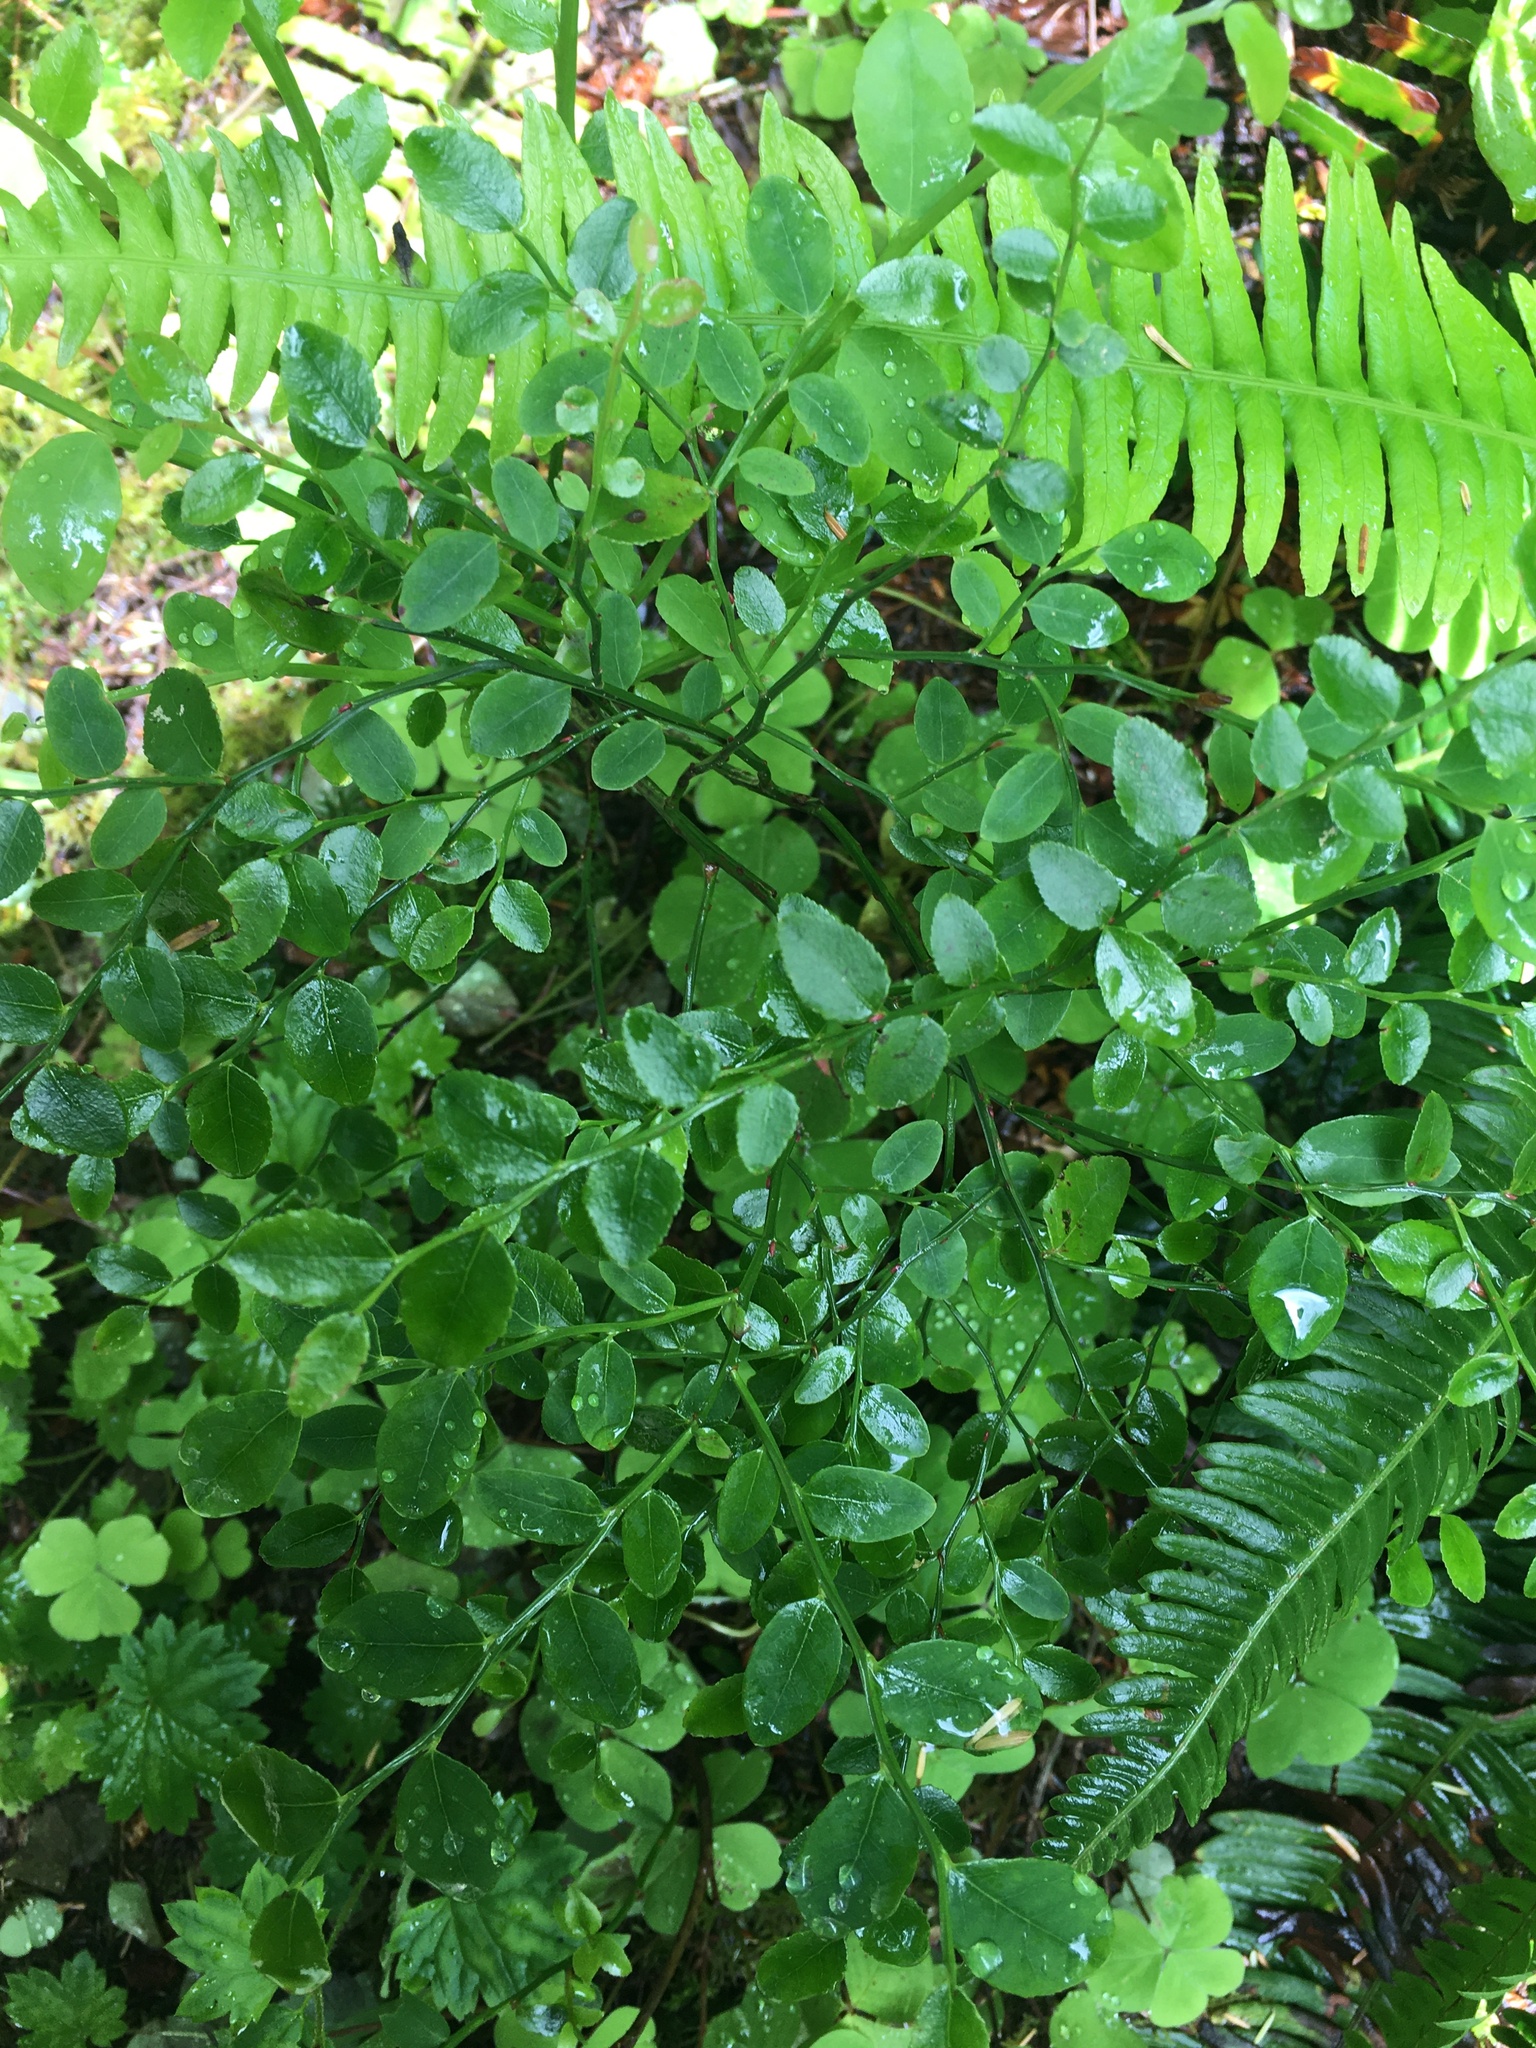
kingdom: Plantae
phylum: Tracheophyta
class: Magnoliopsida
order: Ericales
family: Ericaceae
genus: Vaccinium
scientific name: Vaccinium parvifolium
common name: Red-huckleberry
